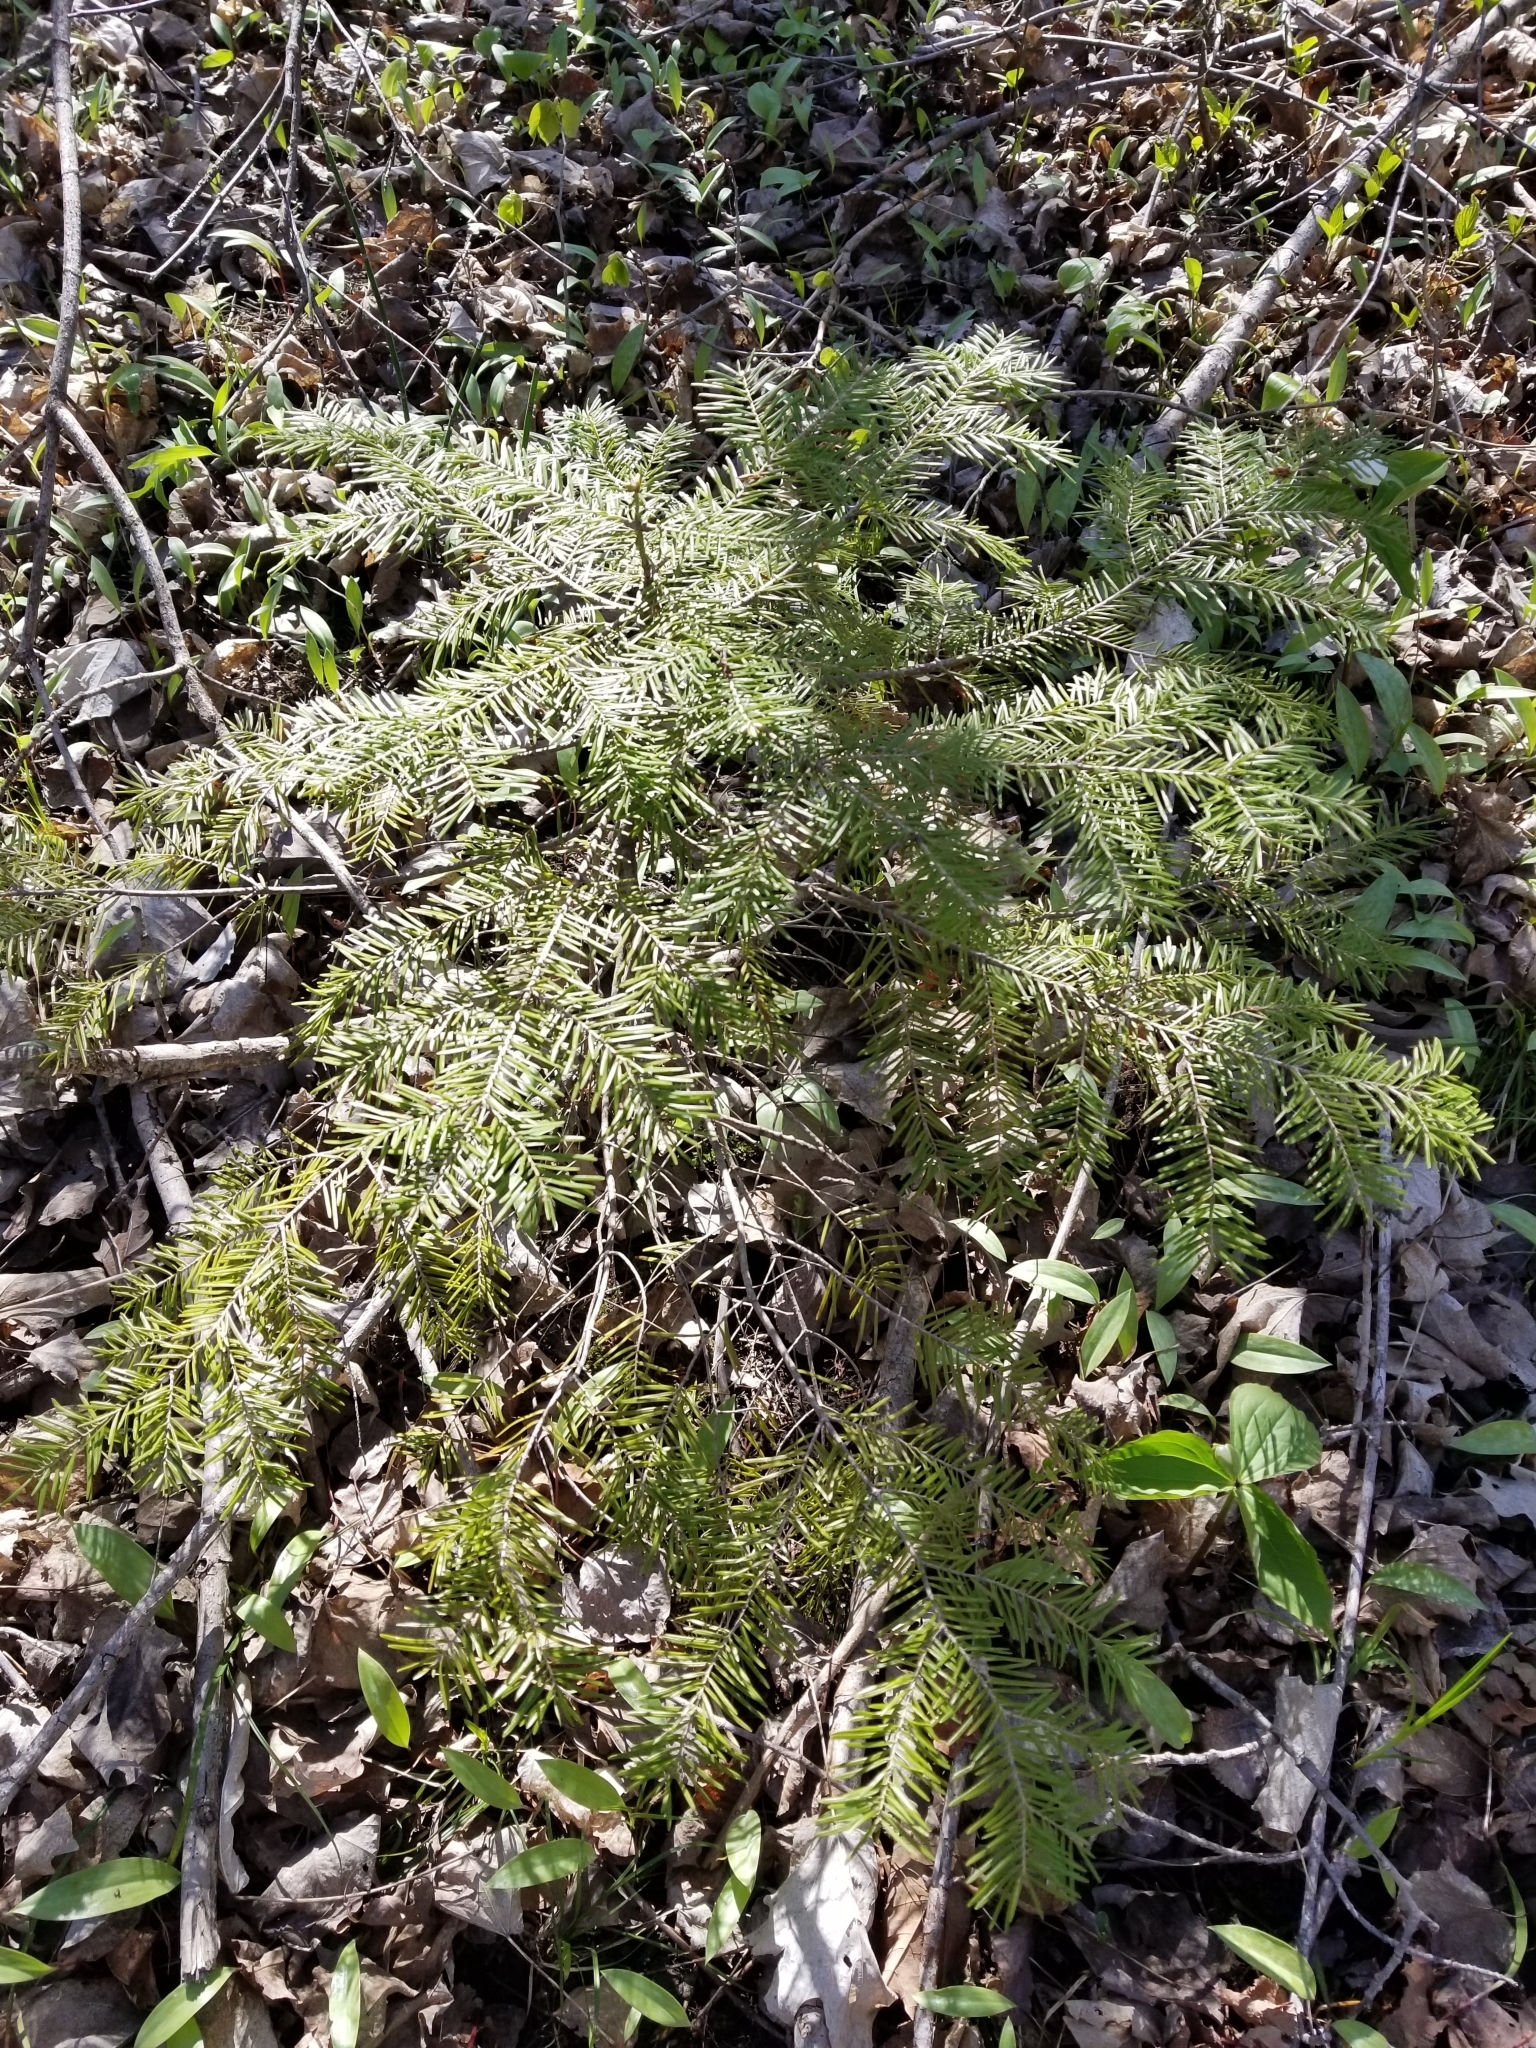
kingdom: Plantae
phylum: Tracheophyta
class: Pinopsida
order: Pinales
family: Pinaceae
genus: Abies
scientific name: Abies balsamea
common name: Balsam fir
